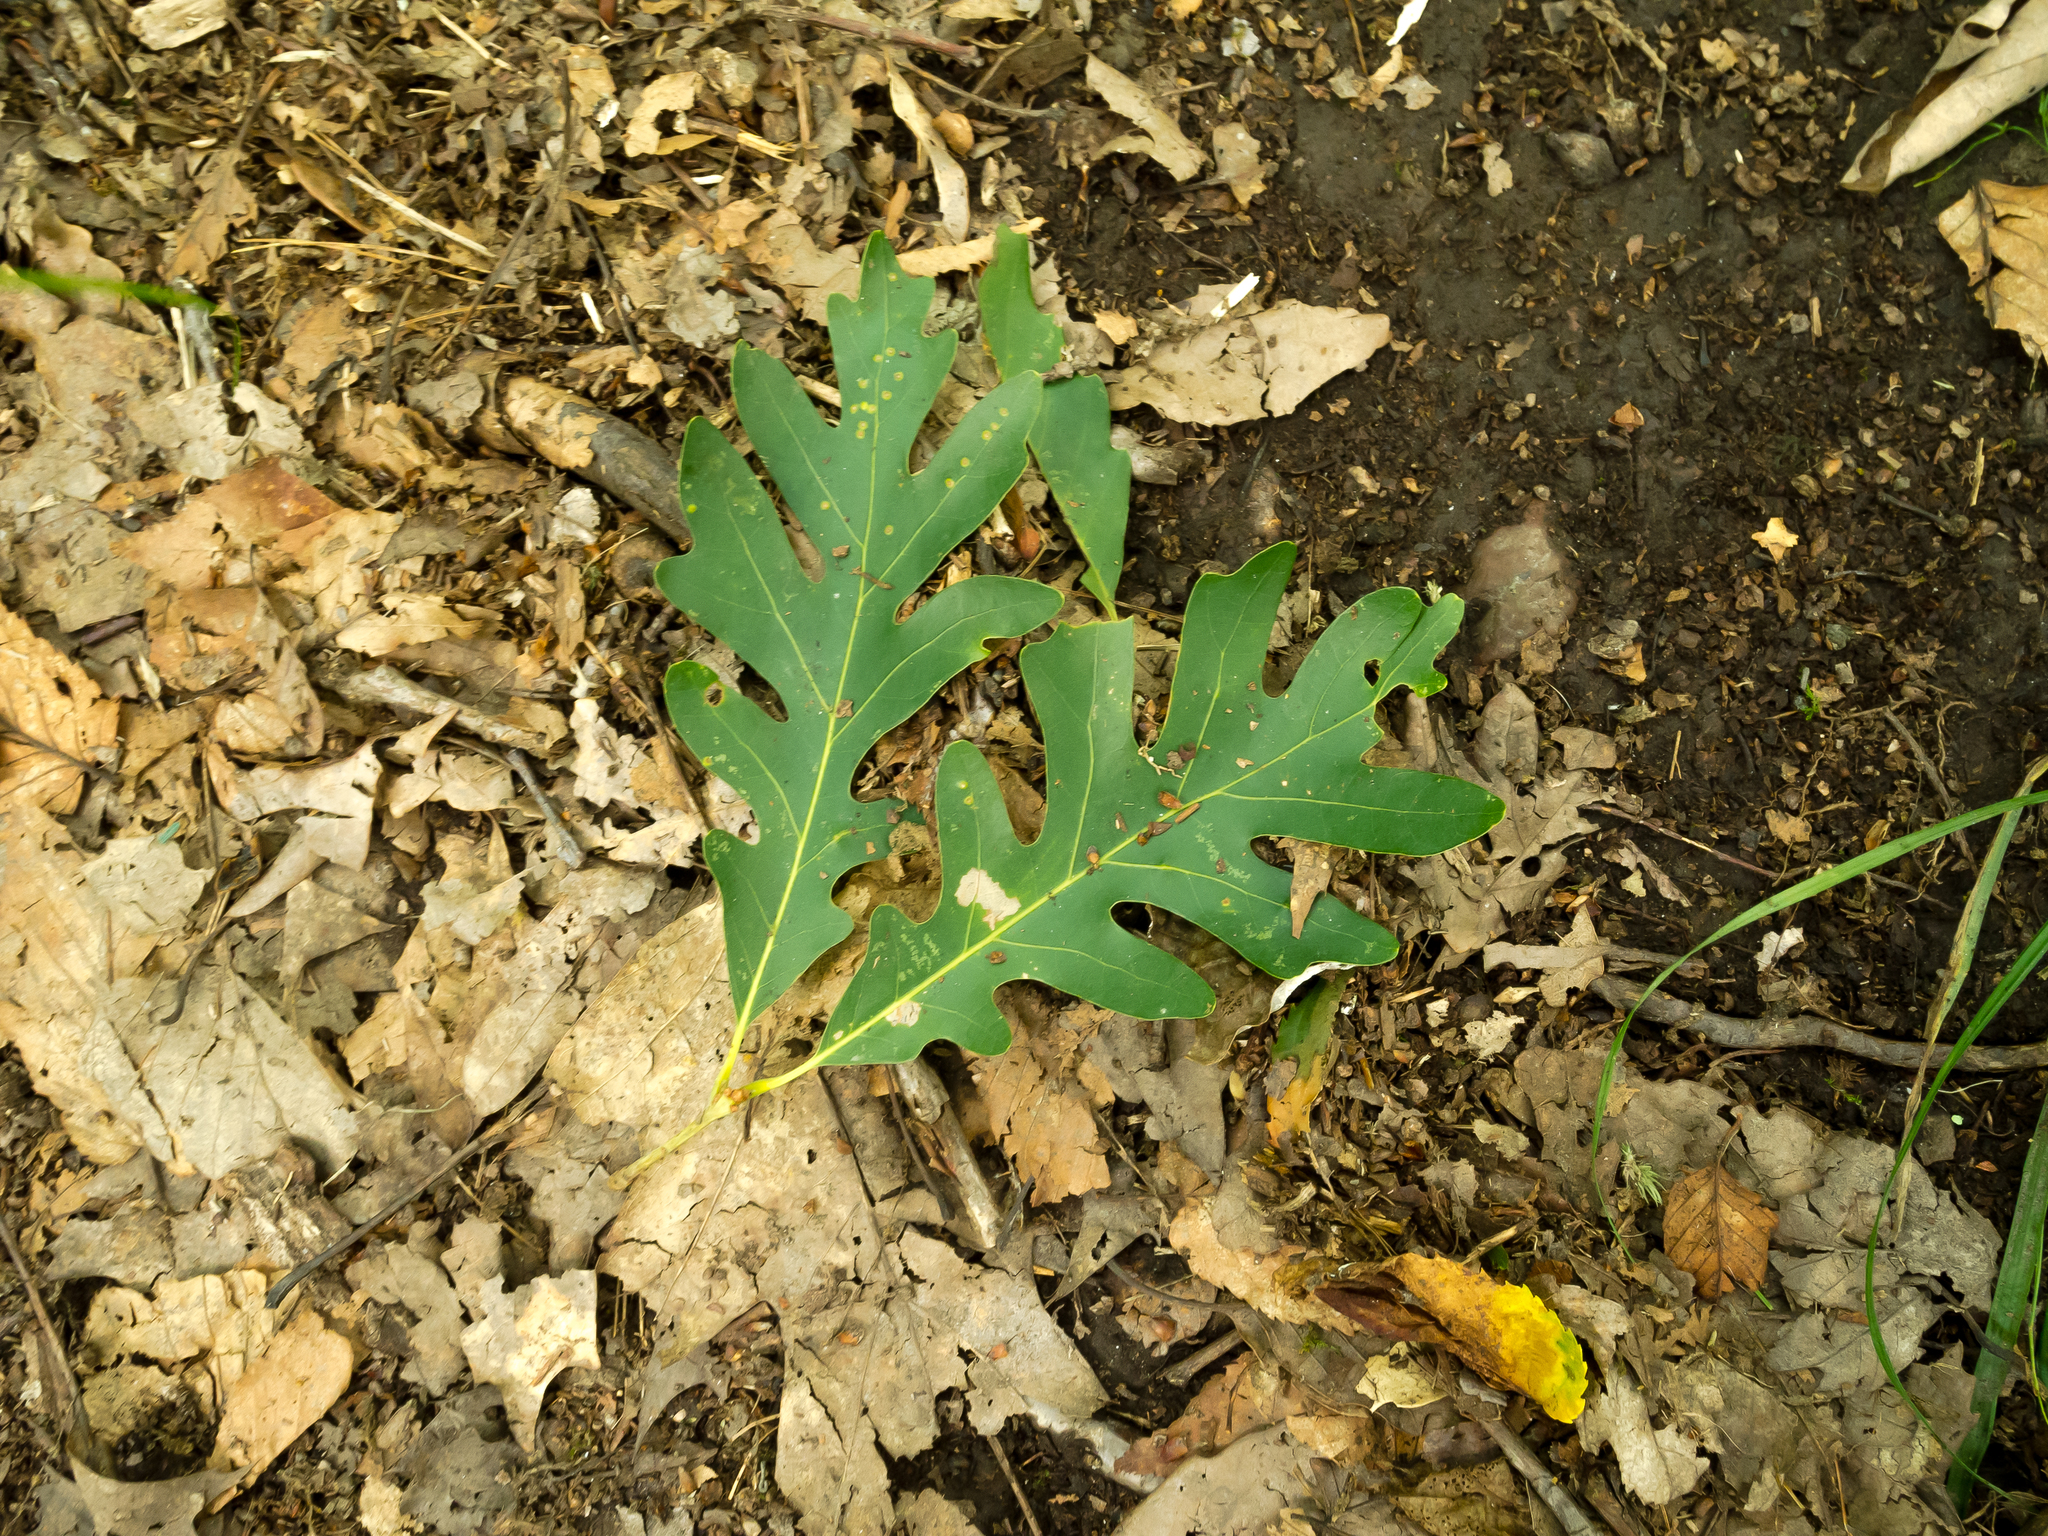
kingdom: Plantae
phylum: Tracheophyta
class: Magnoliopsida
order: Fagales
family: Fagaceae
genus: Quercus
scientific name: Quercus alba
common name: White oak
